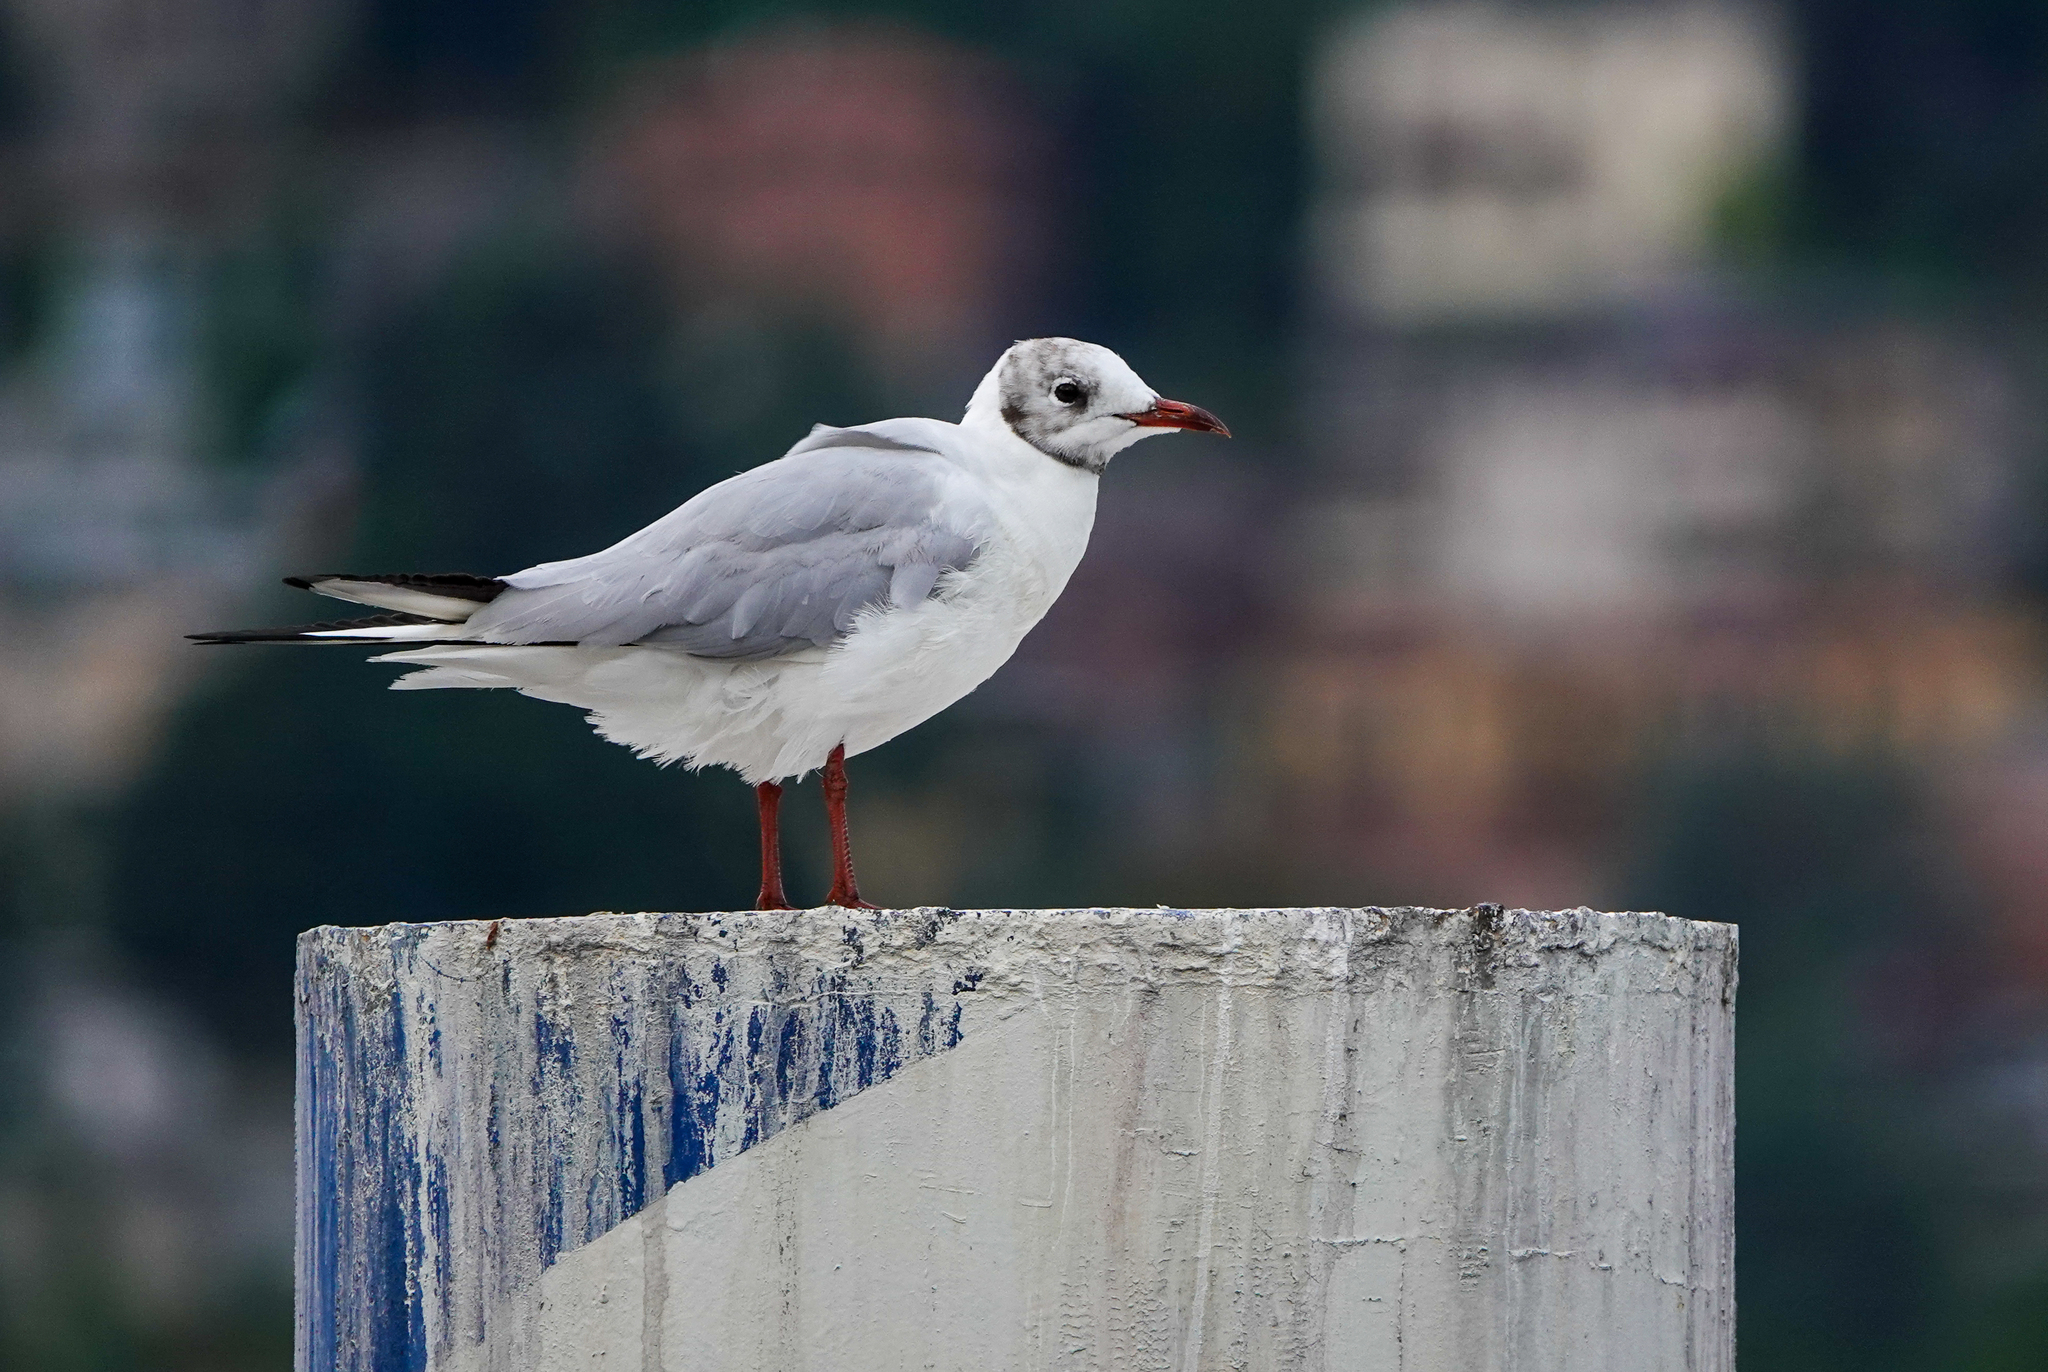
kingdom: Animalia
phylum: Chordata
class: Aves
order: Charadriiformes
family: Laridae
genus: Chroicocephalus
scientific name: Chroicocephalus ridibundus
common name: Black-headed gull
